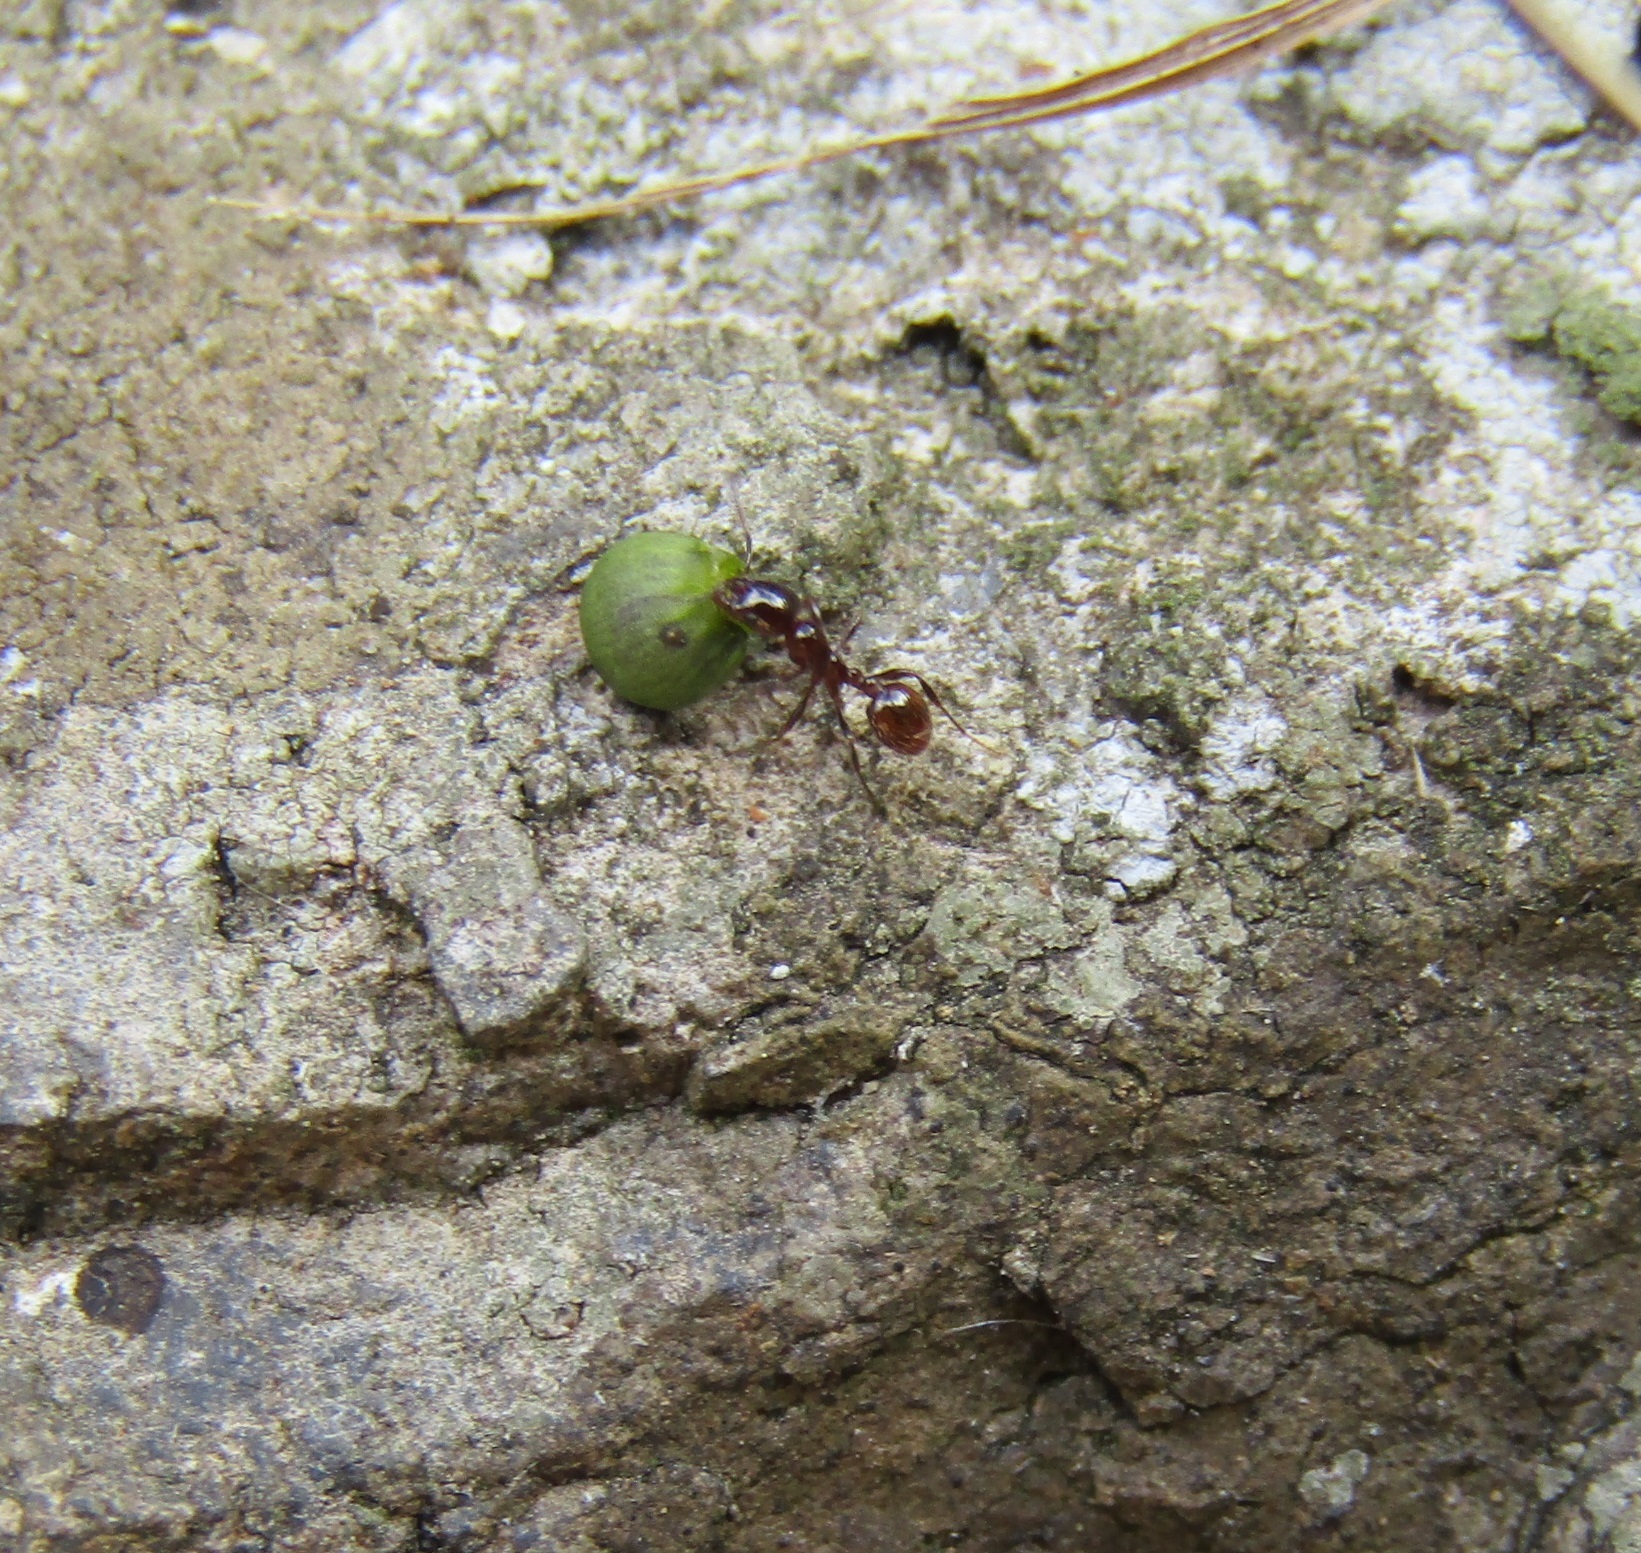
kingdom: Animalia
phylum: Arthropoda
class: Insecta
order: Hymenoptera
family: Formicidae
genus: Monomorium
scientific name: Monomorium antarcticum
